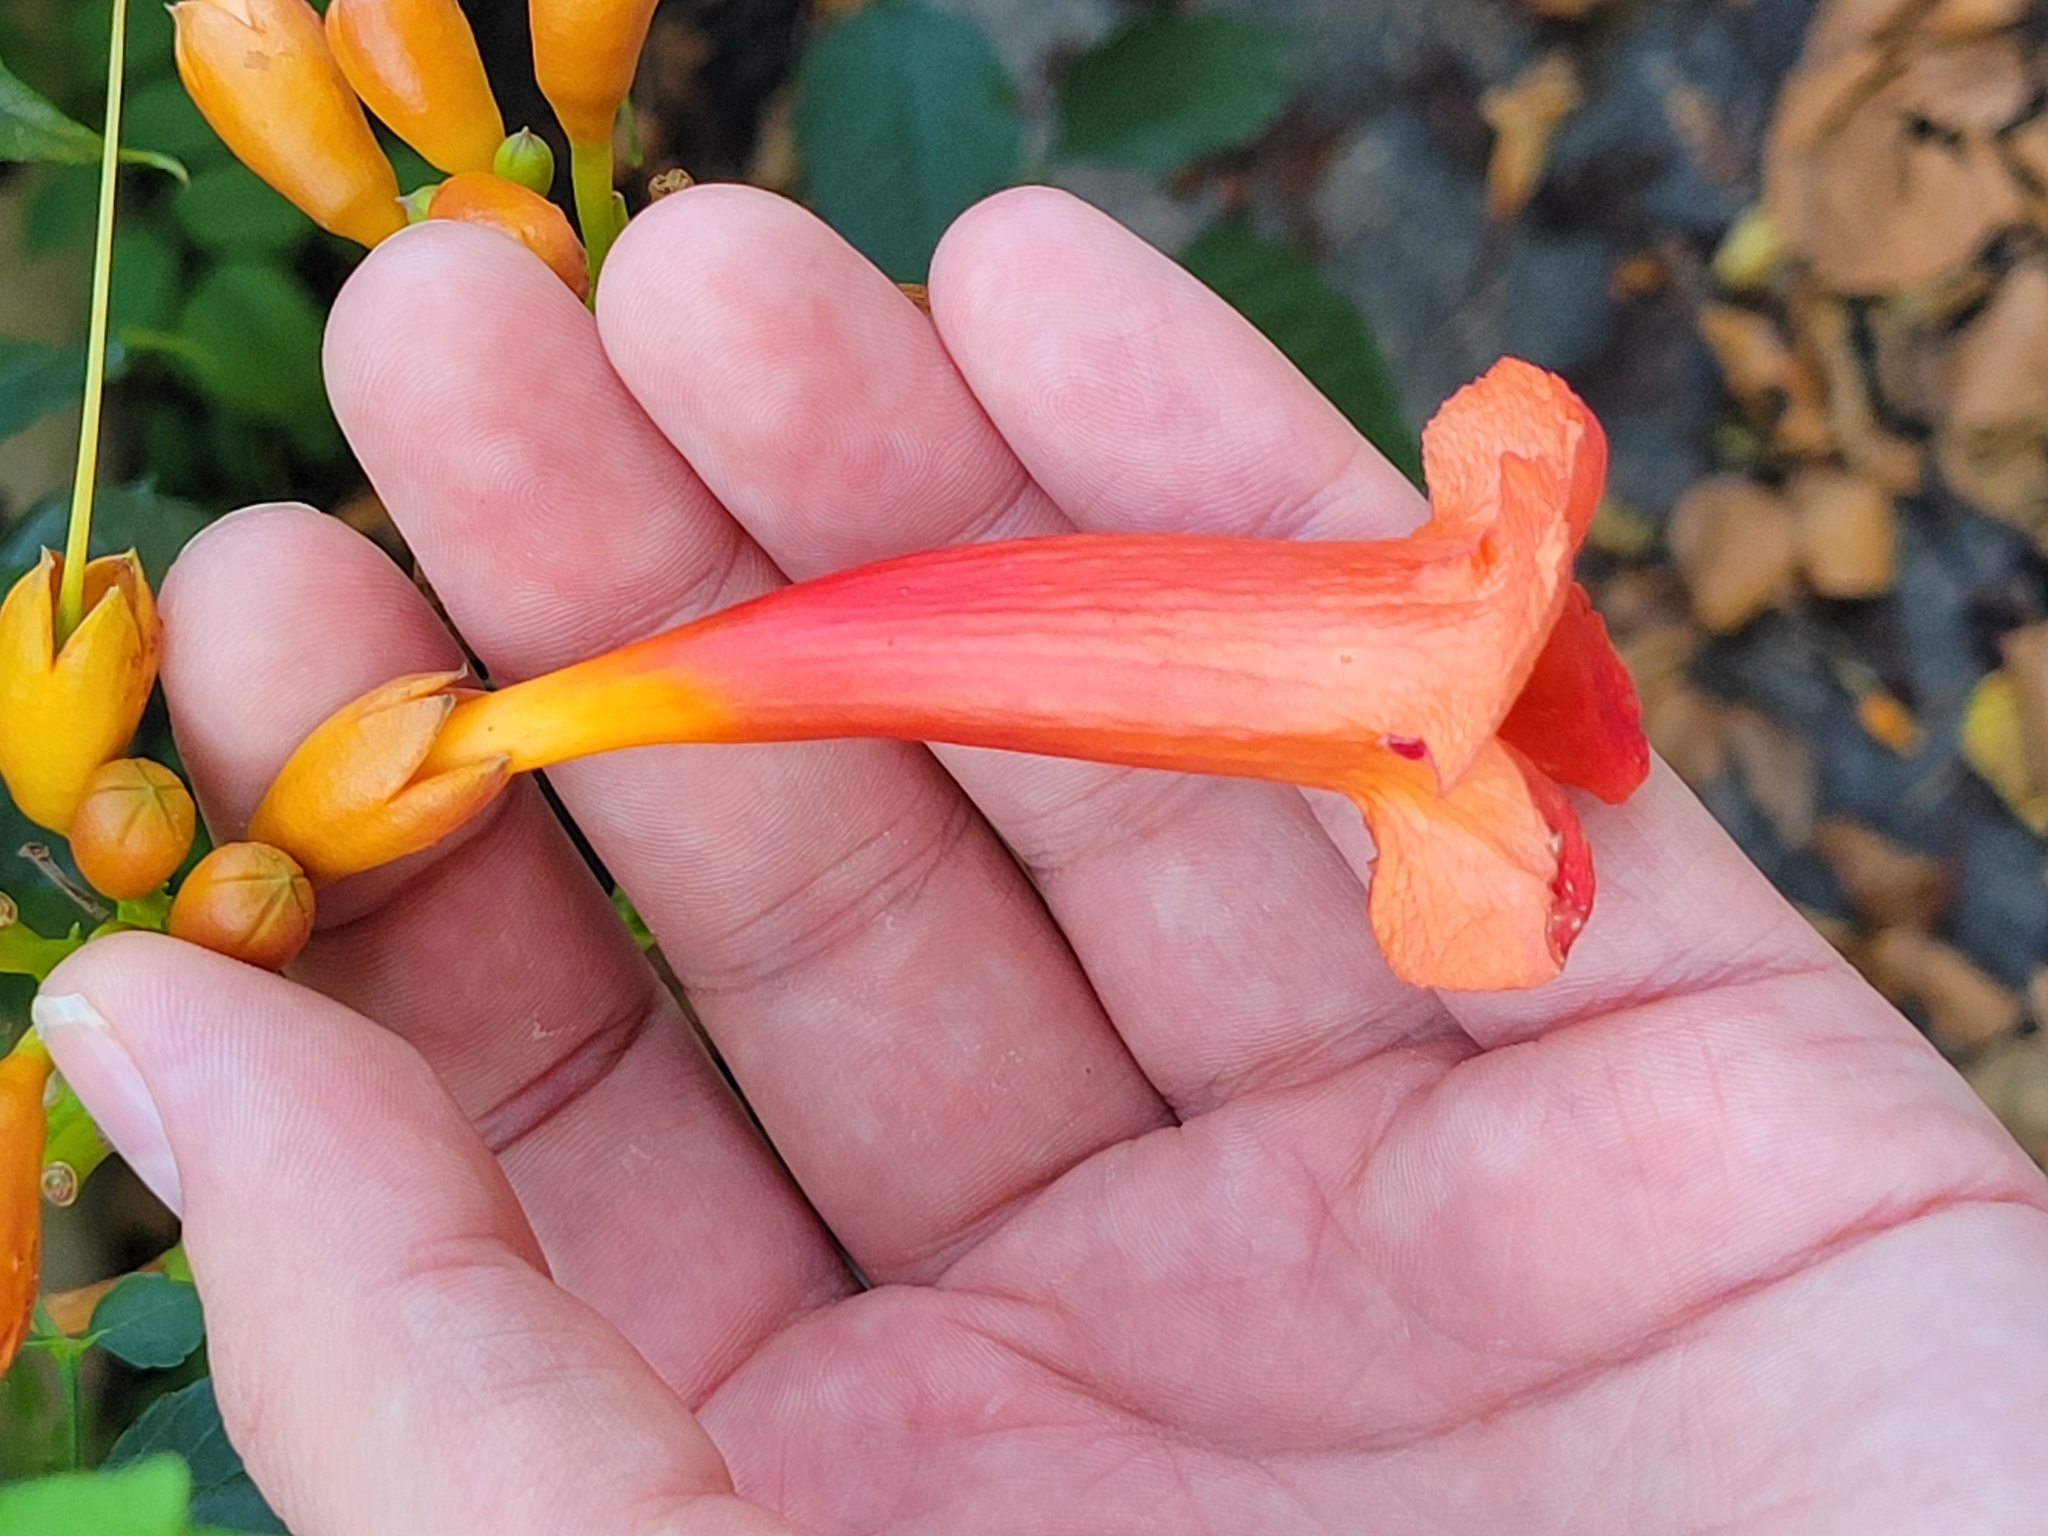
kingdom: Plantae
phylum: Tracheophyta
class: Magnoliopsida
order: Lamiales
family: Bignoniaceae
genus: Campsis
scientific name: Campsis radicans
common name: Trumpet-creeper
